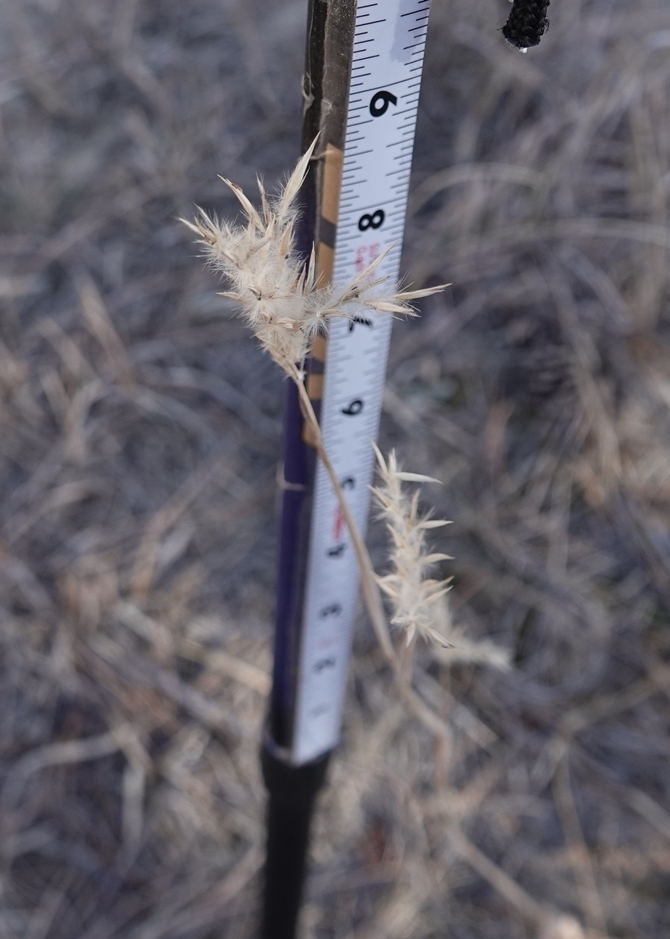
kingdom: Plantae
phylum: Tracheophyta
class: Liliopsida
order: Poales
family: Poaceae
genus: Andropogon
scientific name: Andropogon hallii
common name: Sand bluestem
